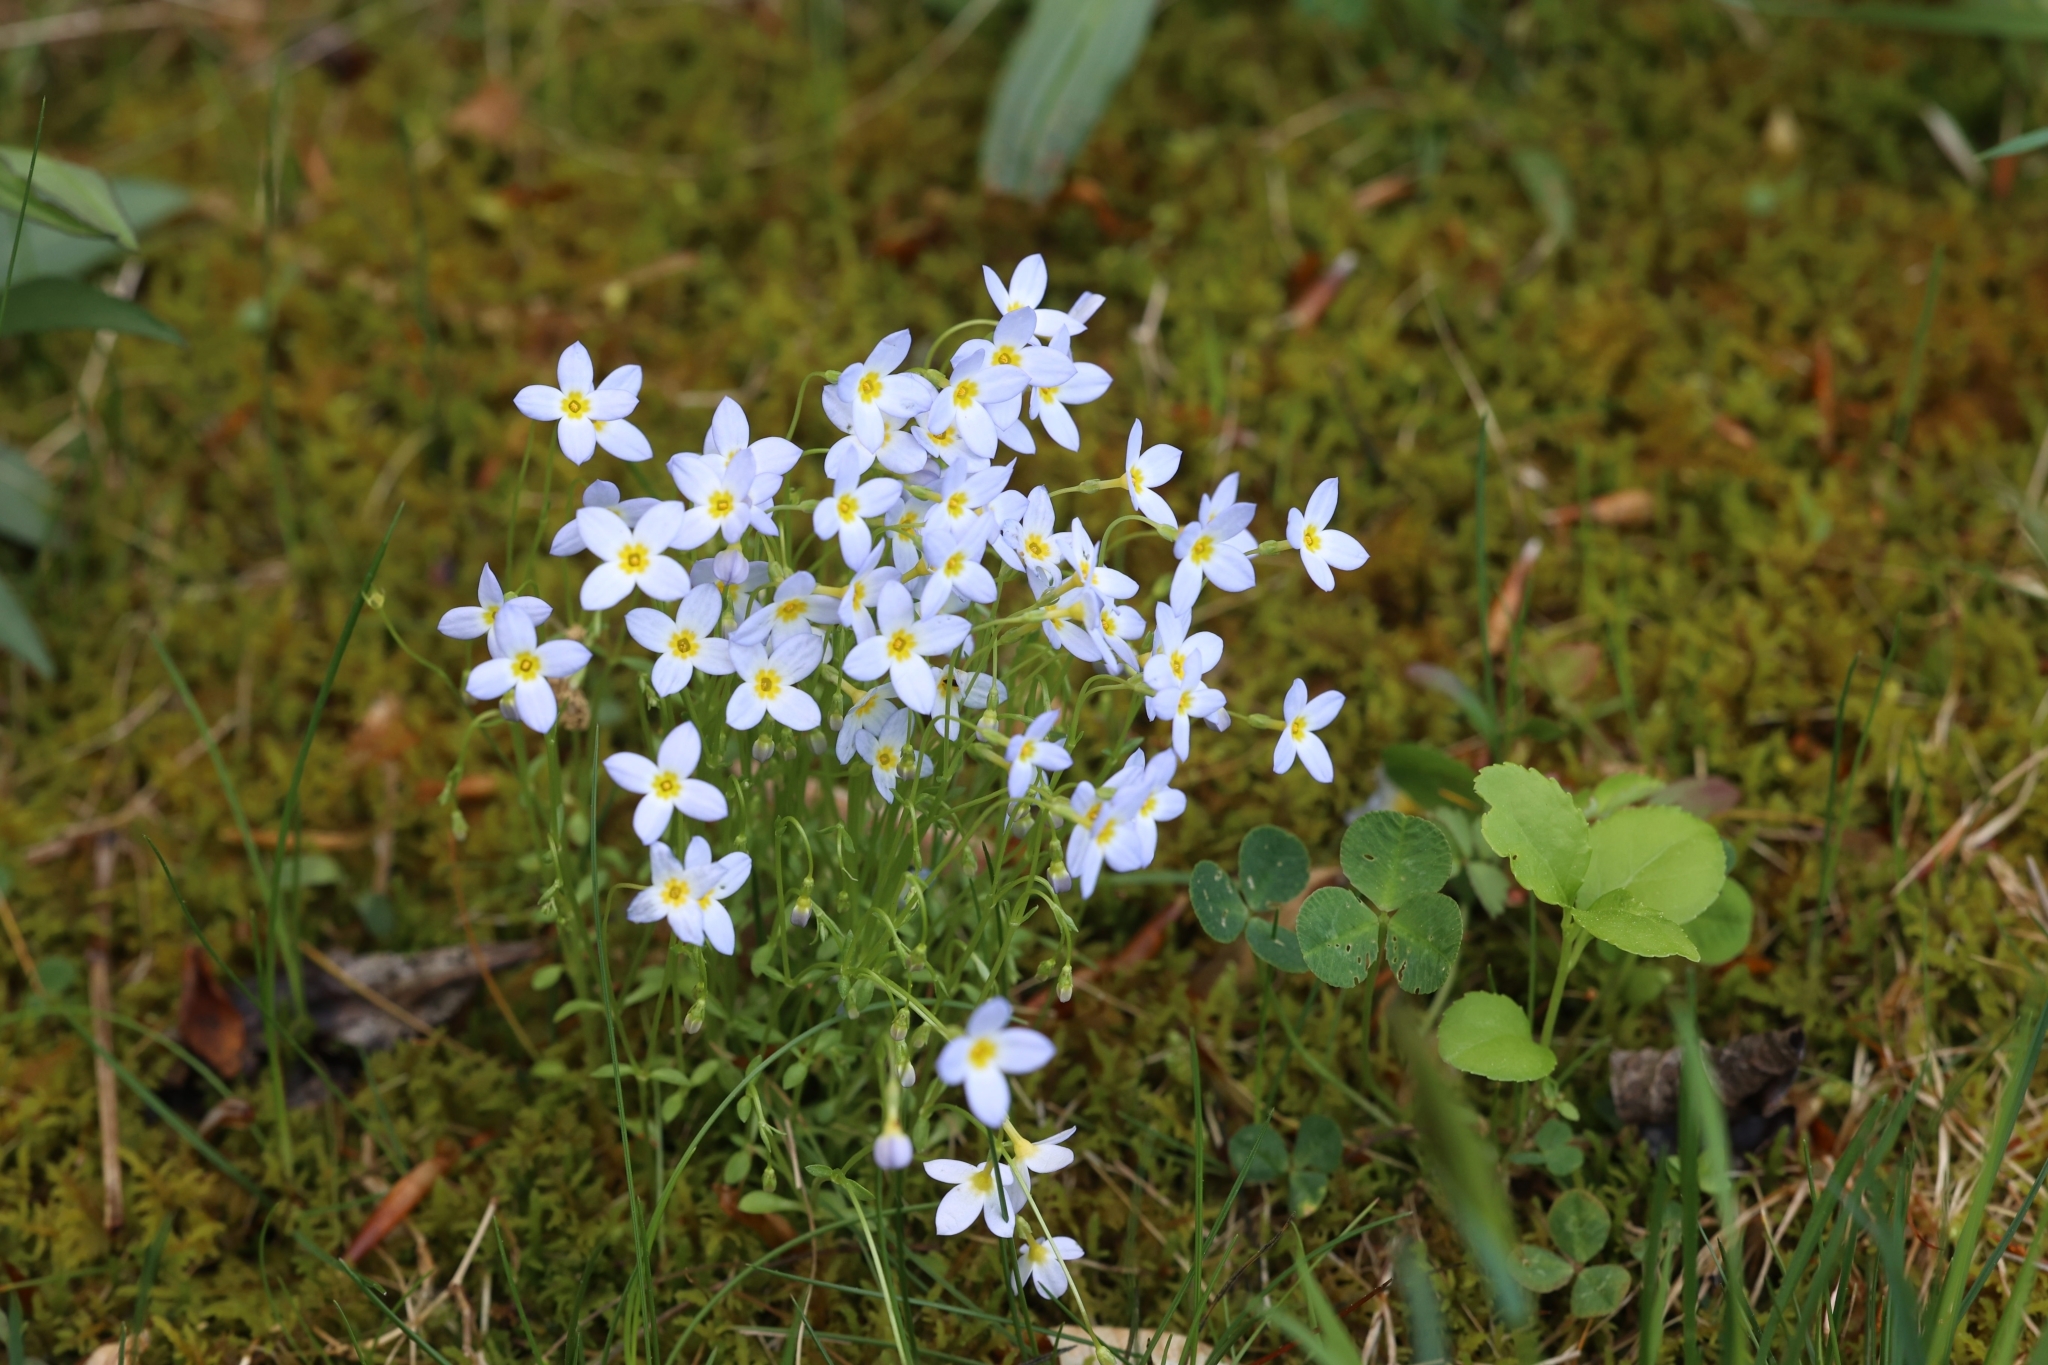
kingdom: Plantae
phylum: Tracheophyta
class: Magnoliopsida
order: Gentianales
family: Rubiaceae
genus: Houstonia
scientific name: Houstonia caerulea
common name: Bluets
